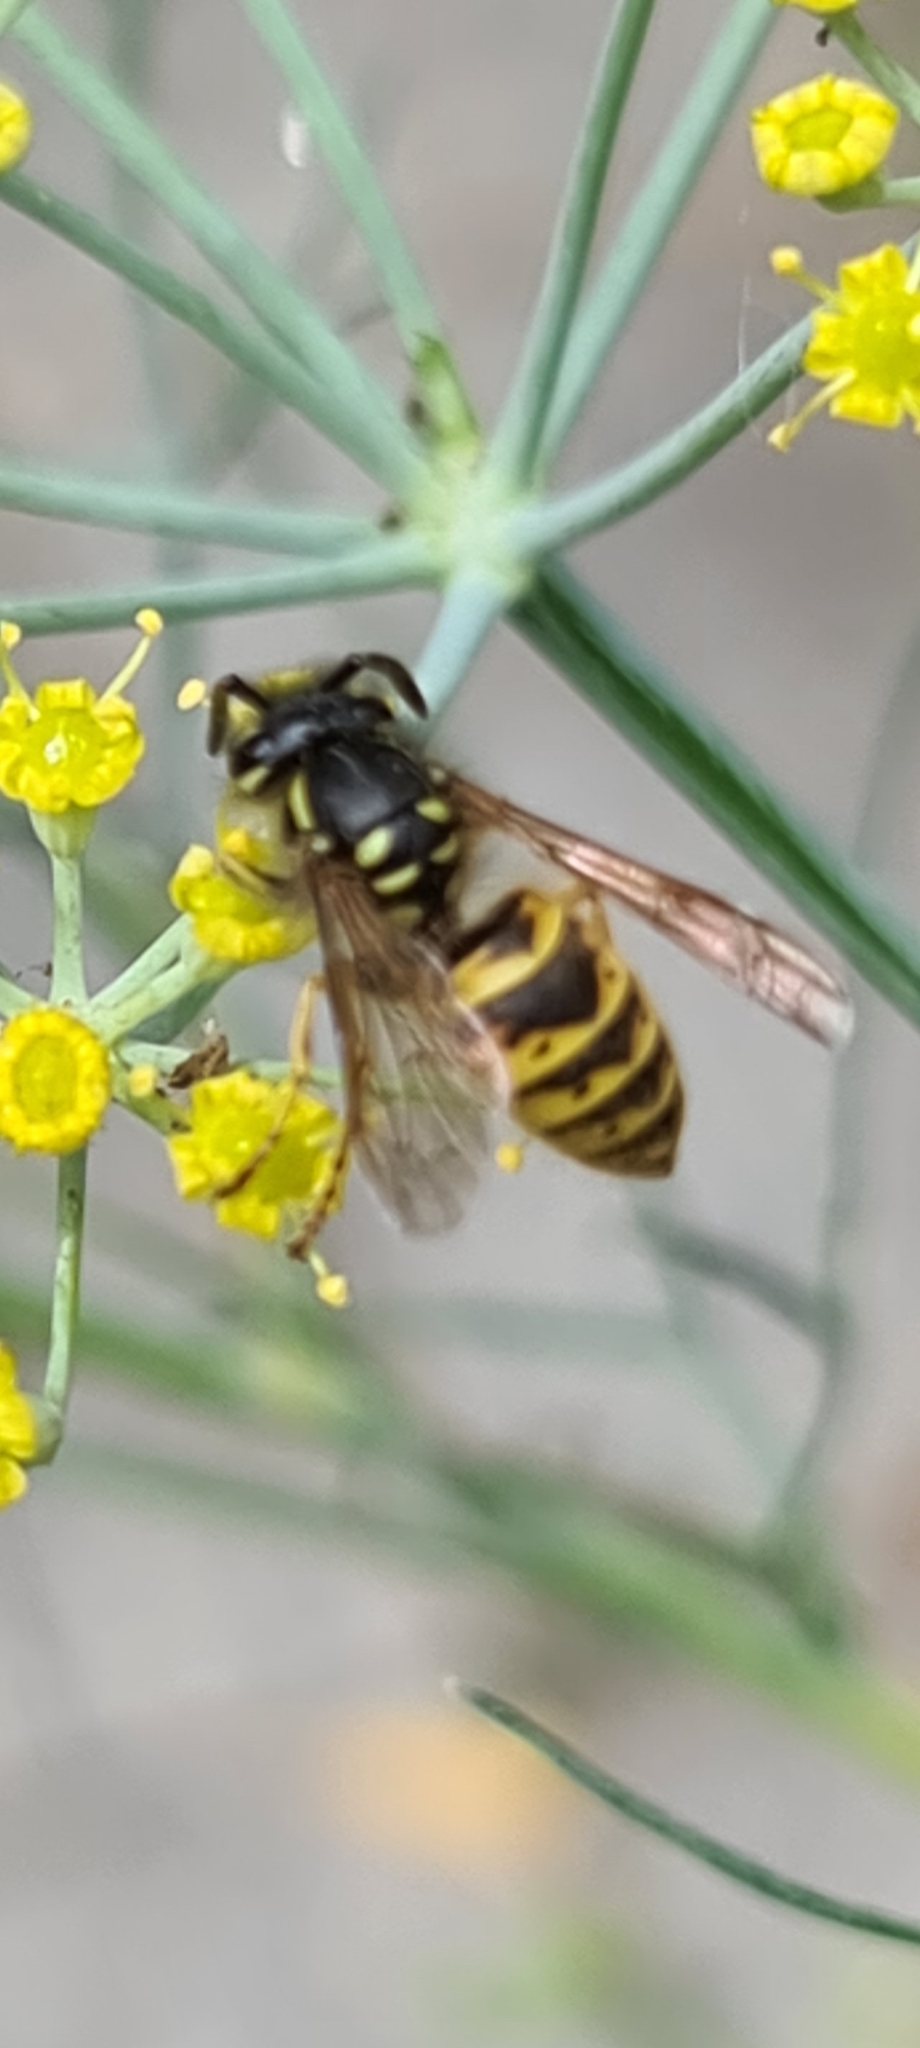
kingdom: Animalia
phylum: Arthropoda
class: Insecta
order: Hymenoptera
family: Vespidae
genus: Vespula
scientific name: Vespula vulgaris
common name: Common wasp
